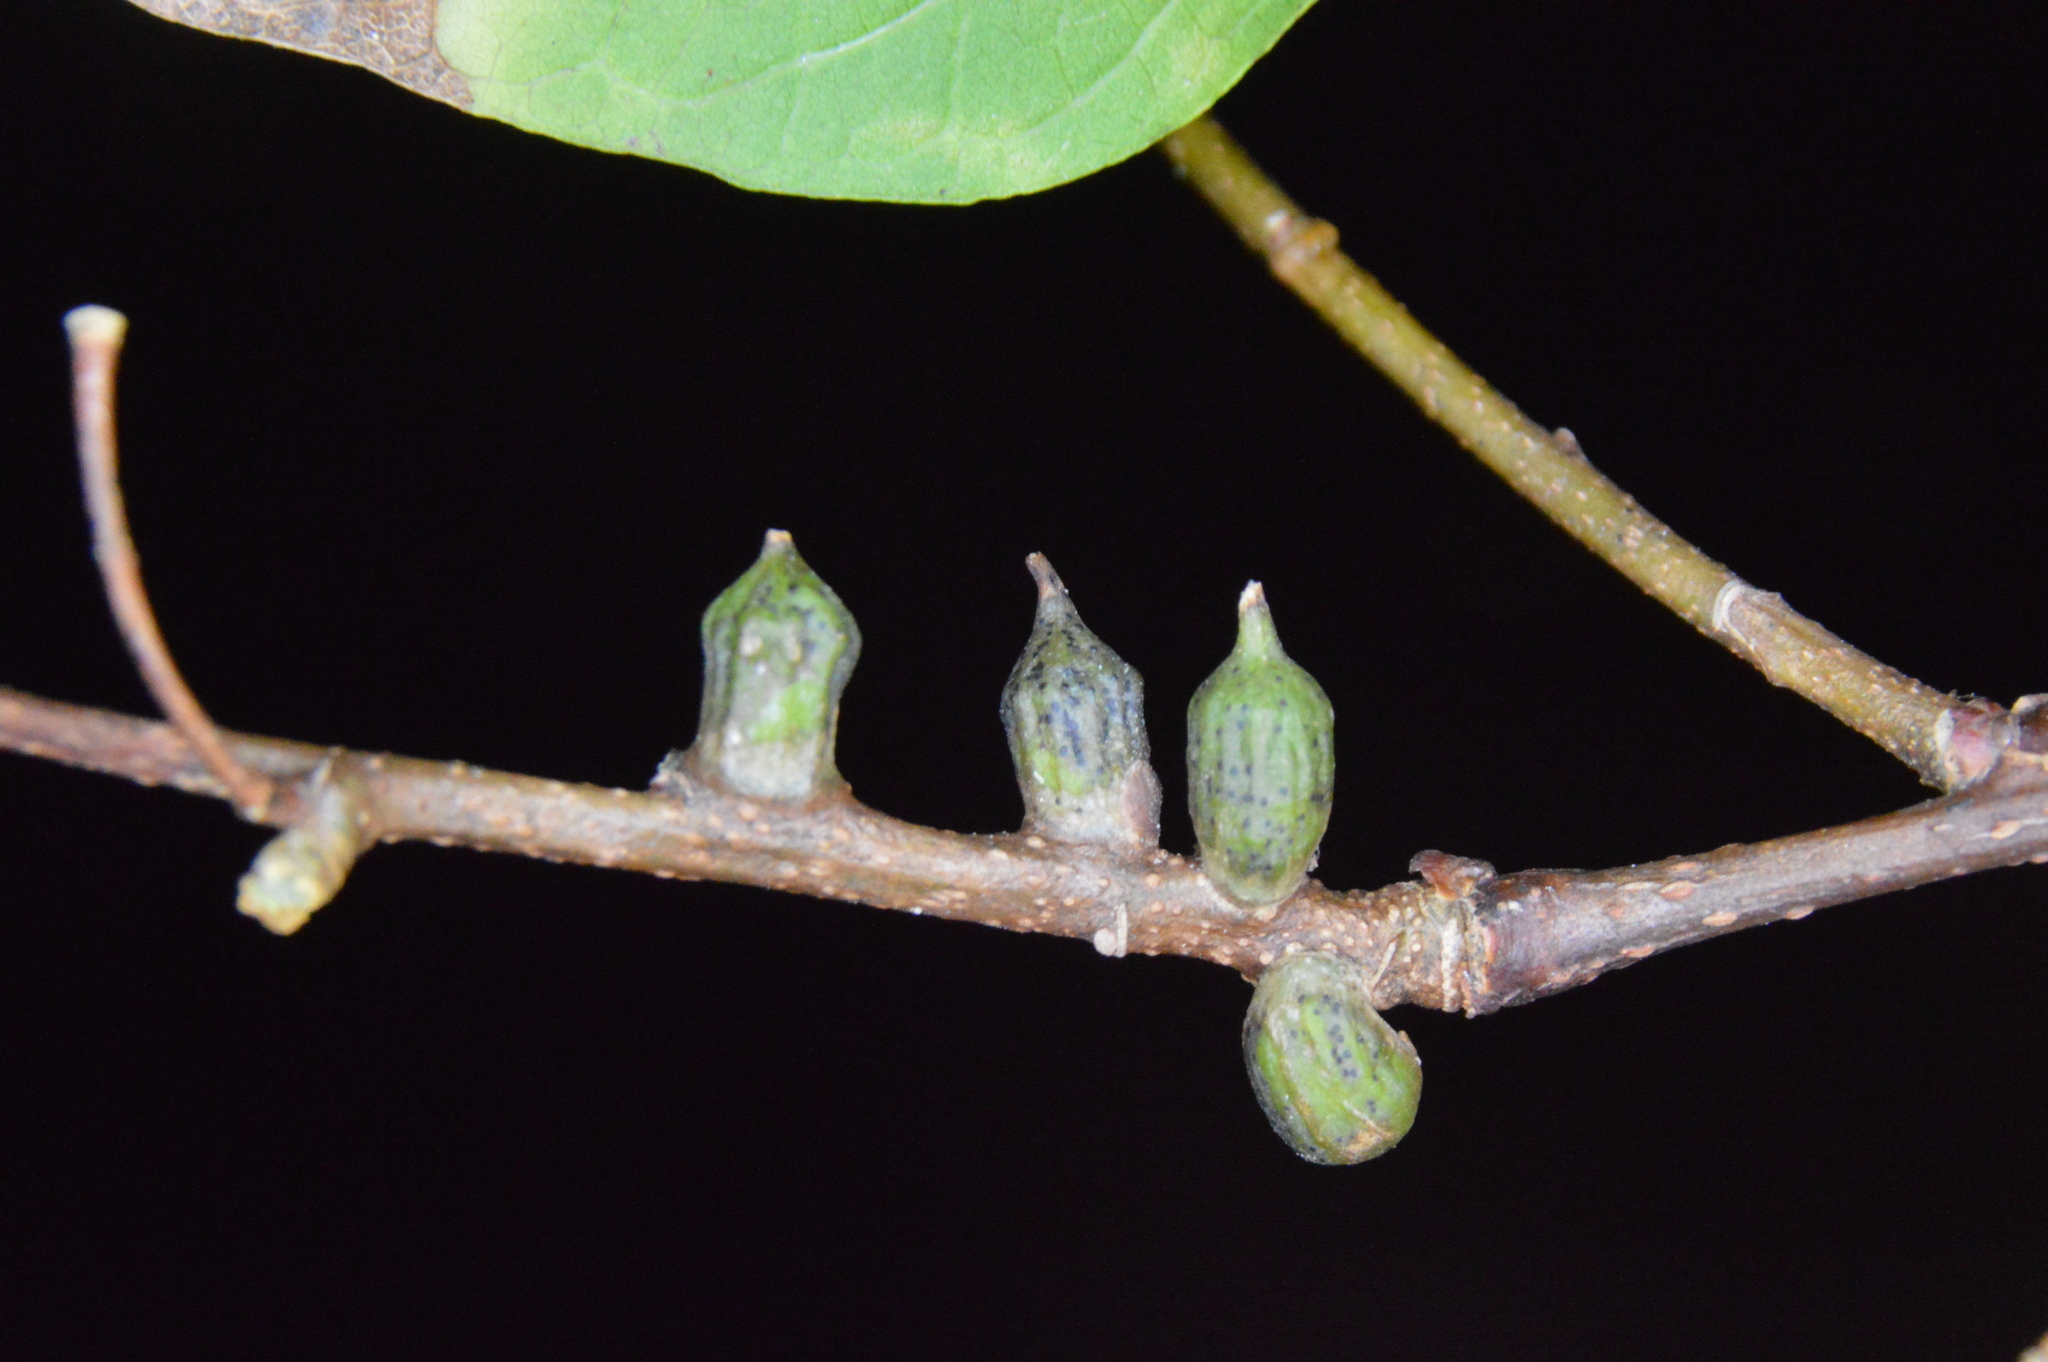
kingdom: Animalia
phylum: Arthropoda
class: Insecta
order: Diptera
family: Cecidomyiidae
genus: Celticecis
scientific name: Celticecis ramicola
